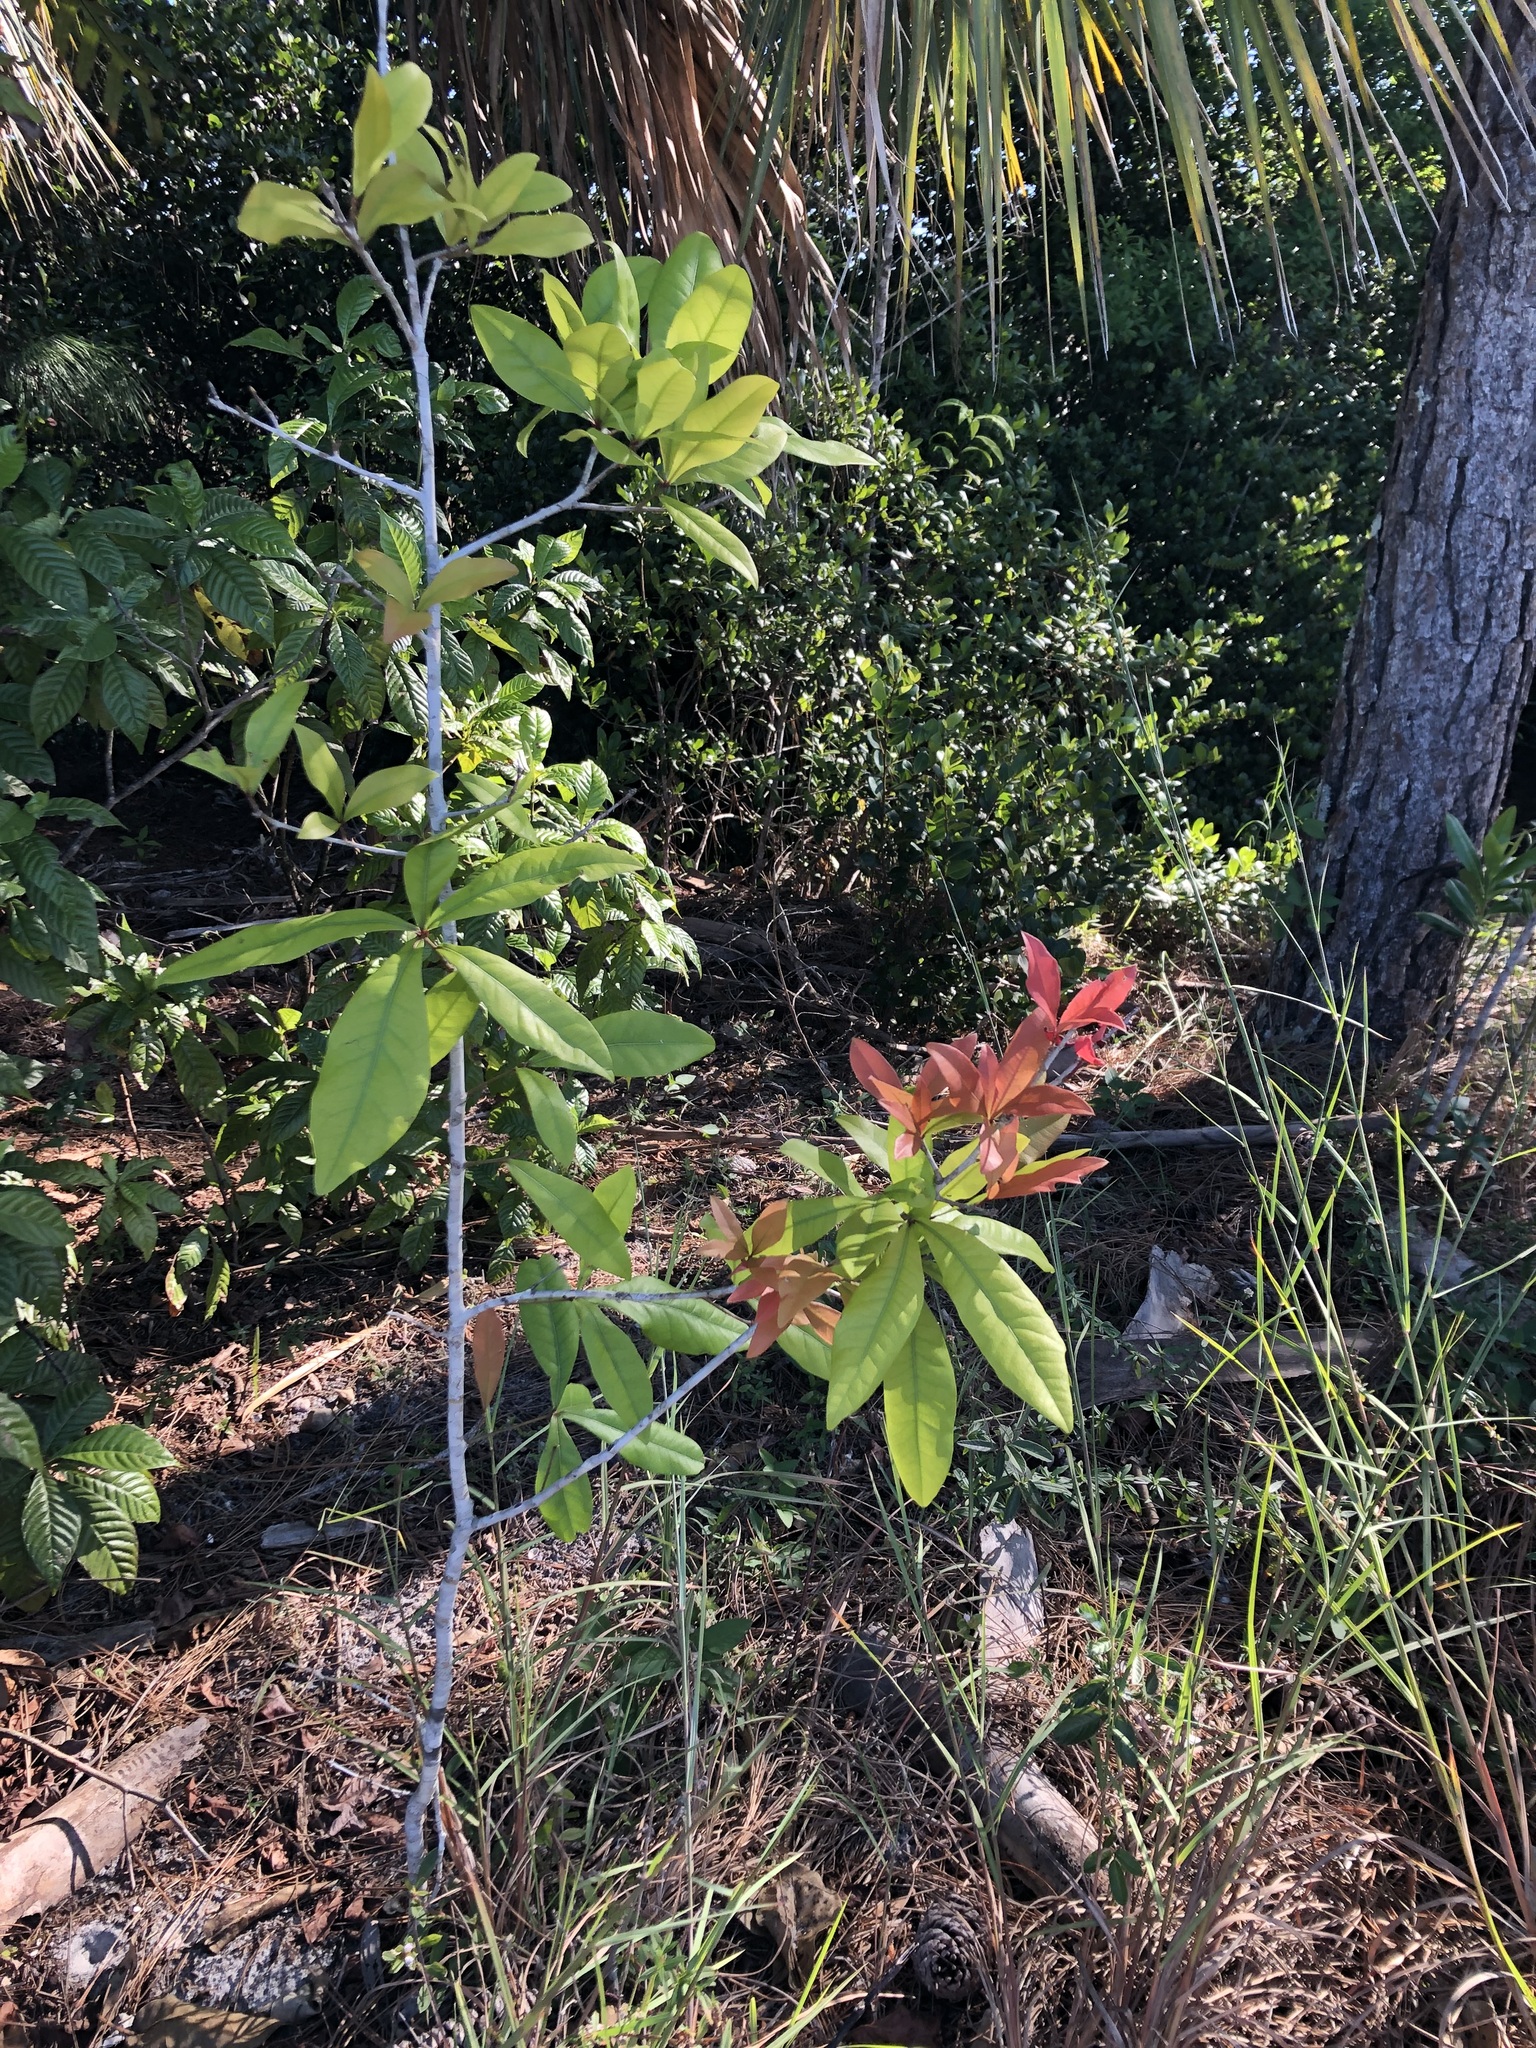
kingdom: Plantae
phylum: Tracheophyta
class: Magnoliopsida
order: Fagales
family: Fagaceae
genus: Quercus
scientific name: Quercus laurifolia
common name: Swamp laurel oak
